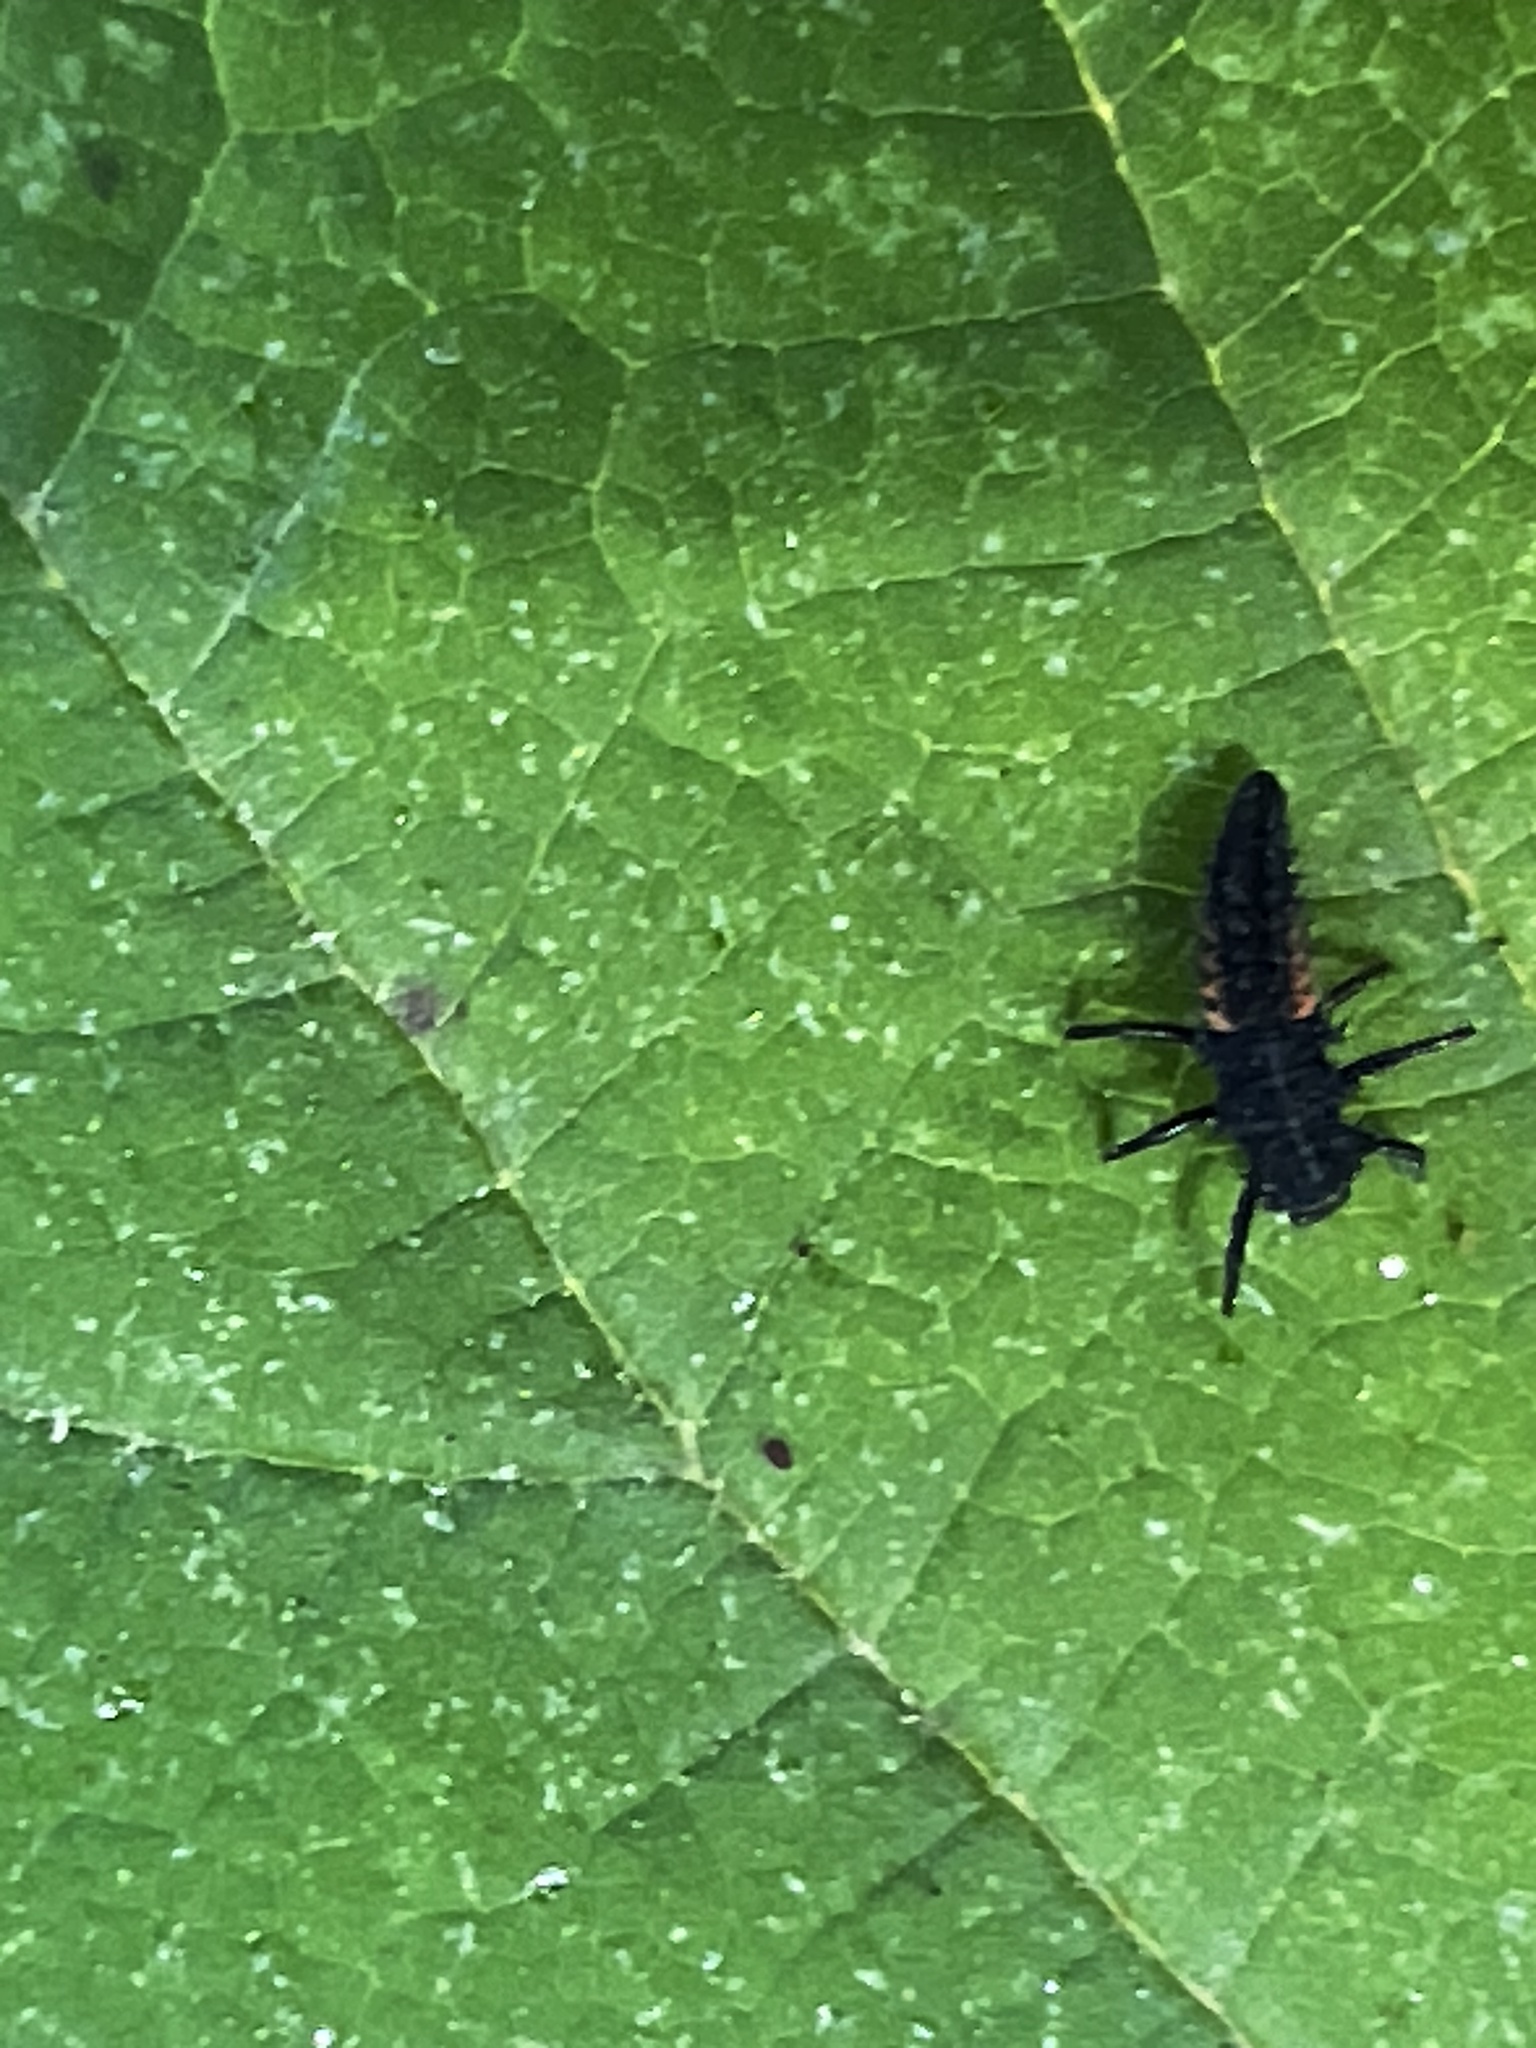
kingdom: Animalia
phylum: Arthropoda
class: Insecta
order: Coleoptera
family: Coccinellidae
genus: Harmonia
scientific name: Harmonia axyridis
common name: Harlequin ladybird
